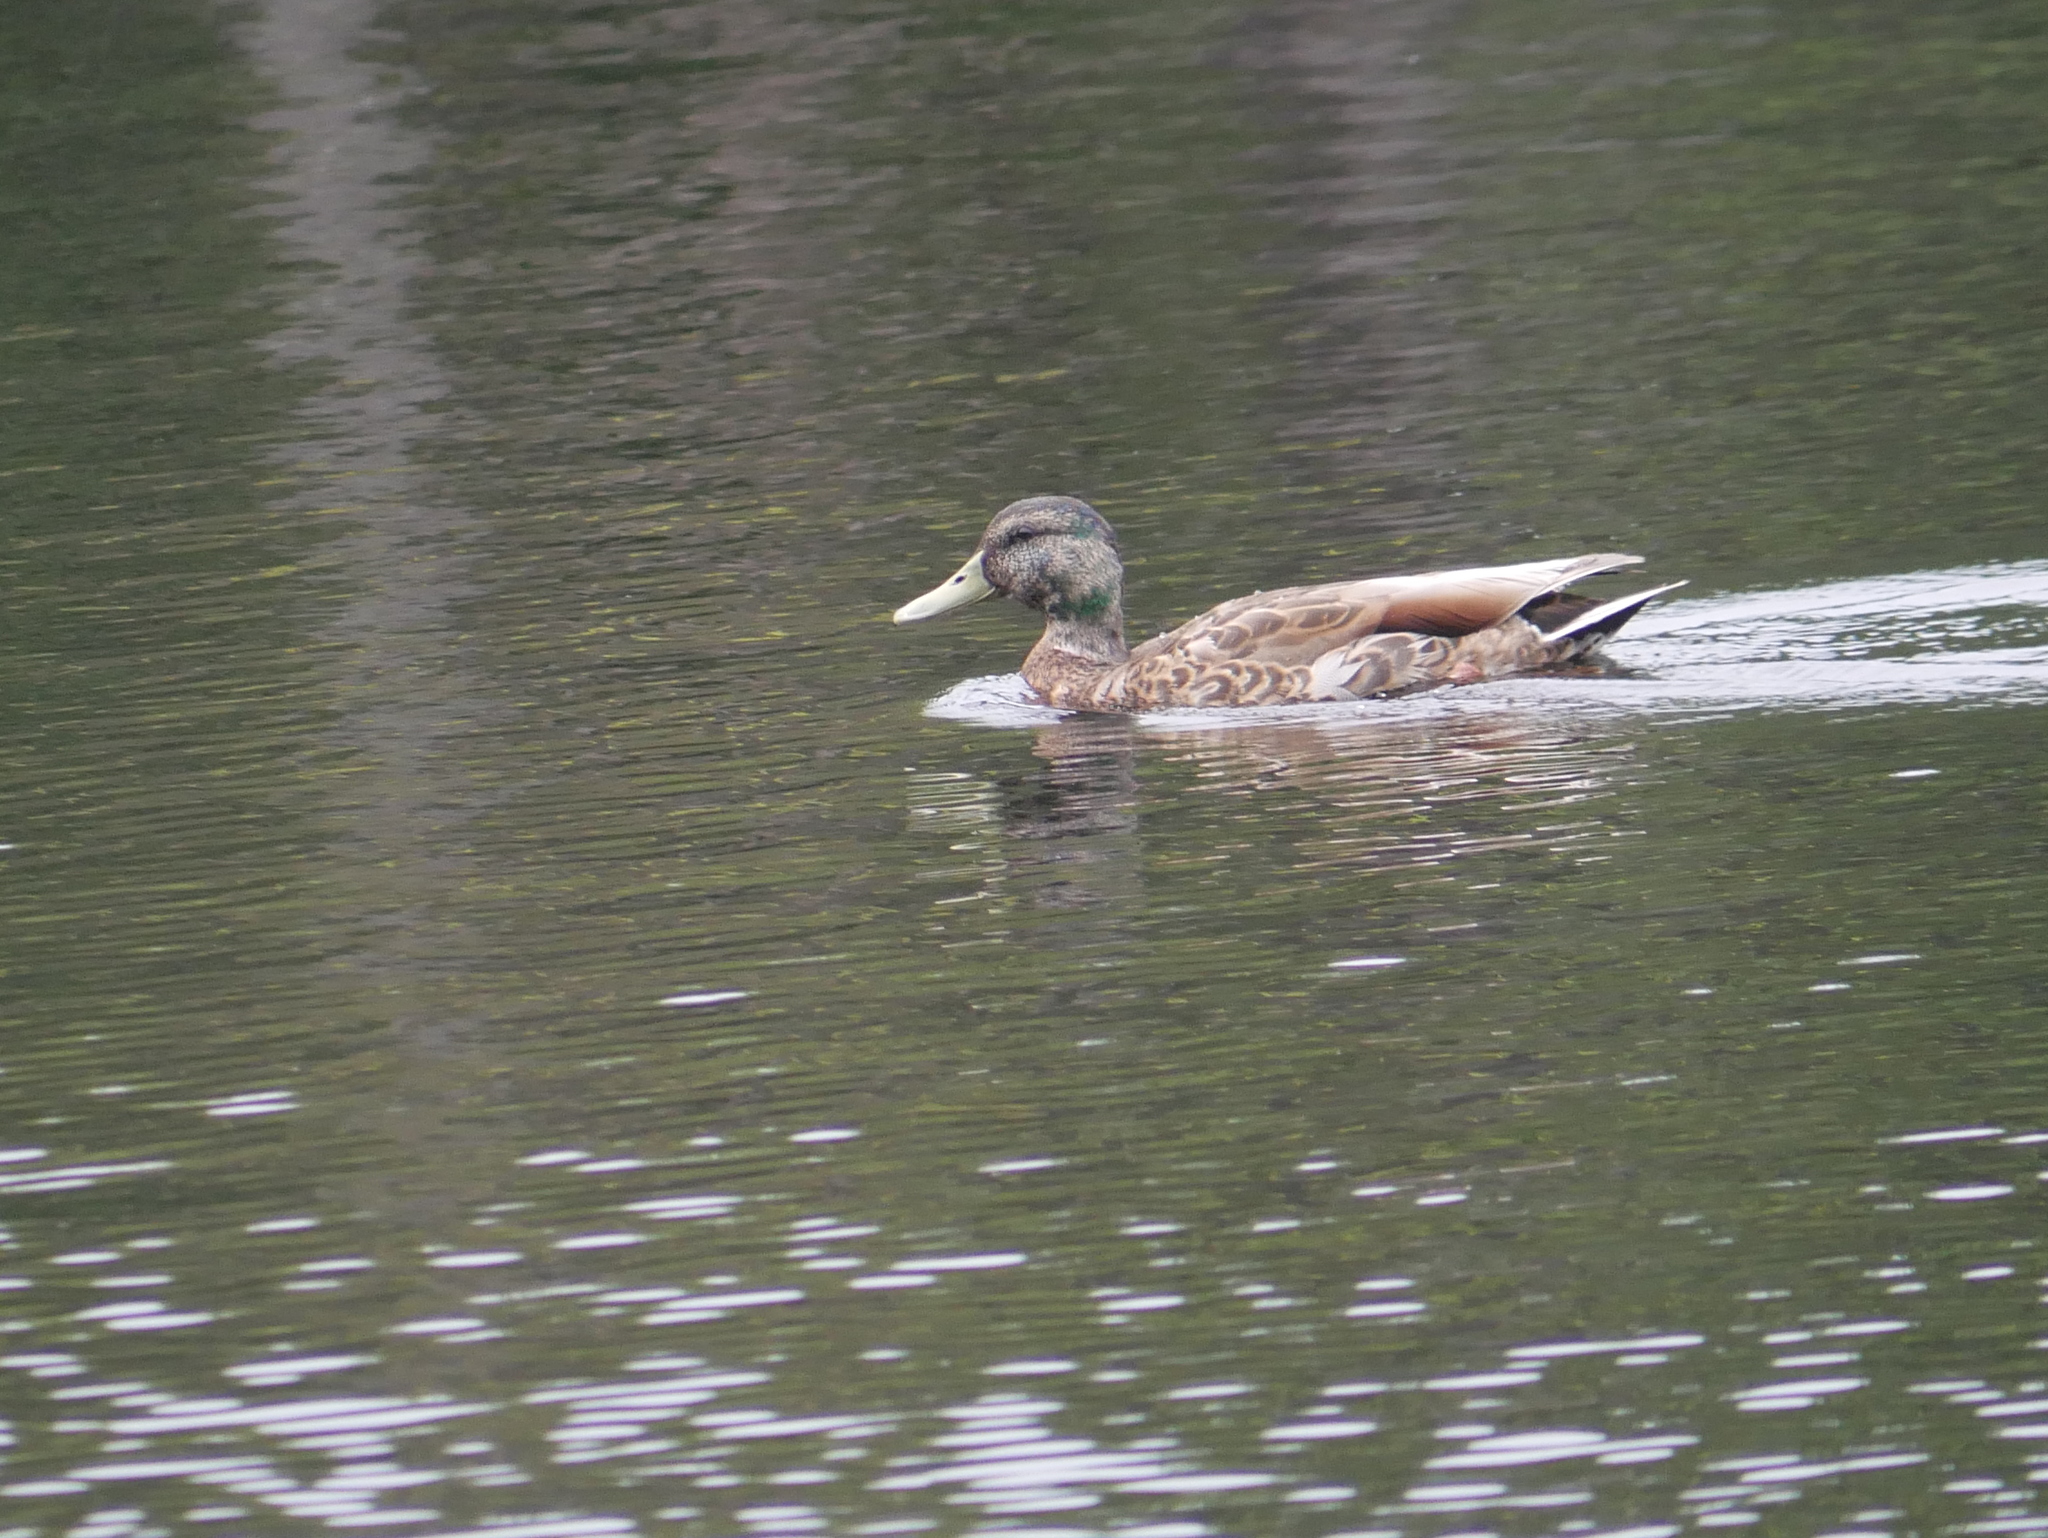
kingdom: Animalia
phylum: Chordata
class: Aves
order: Anseriformes
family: Anatidae
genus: Anas
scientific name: Anas platyrhynchos
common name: Mallard
